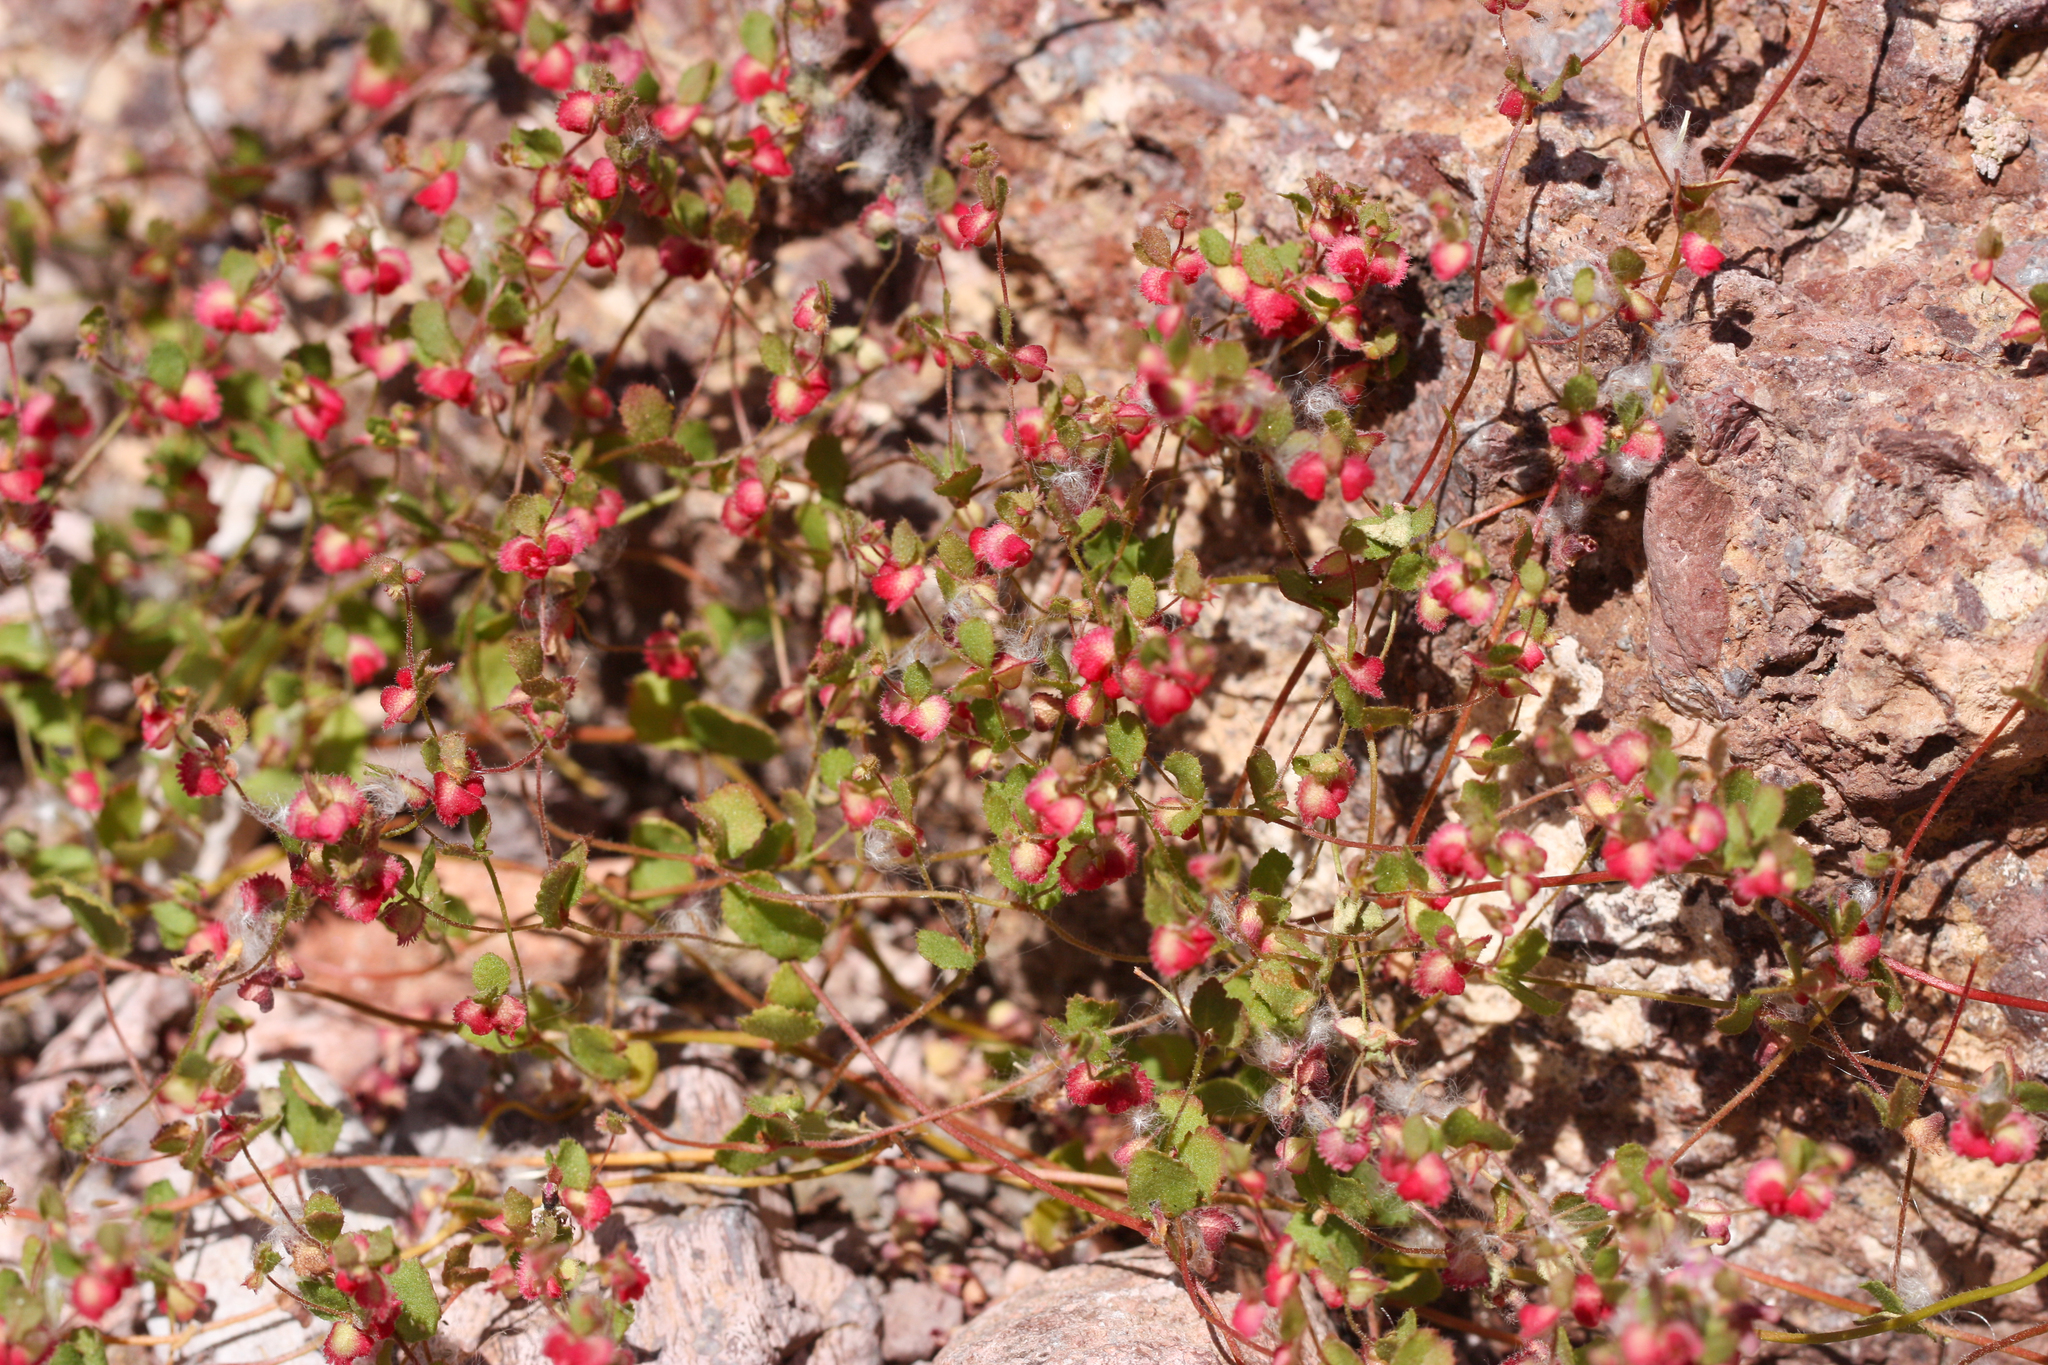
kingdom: Plantae
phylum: Tracheophyta
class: Magnoliopsida
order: Caryophyllales
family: Polygonaceae
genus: Pterostegia
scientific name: Pterostegia drymarioides
